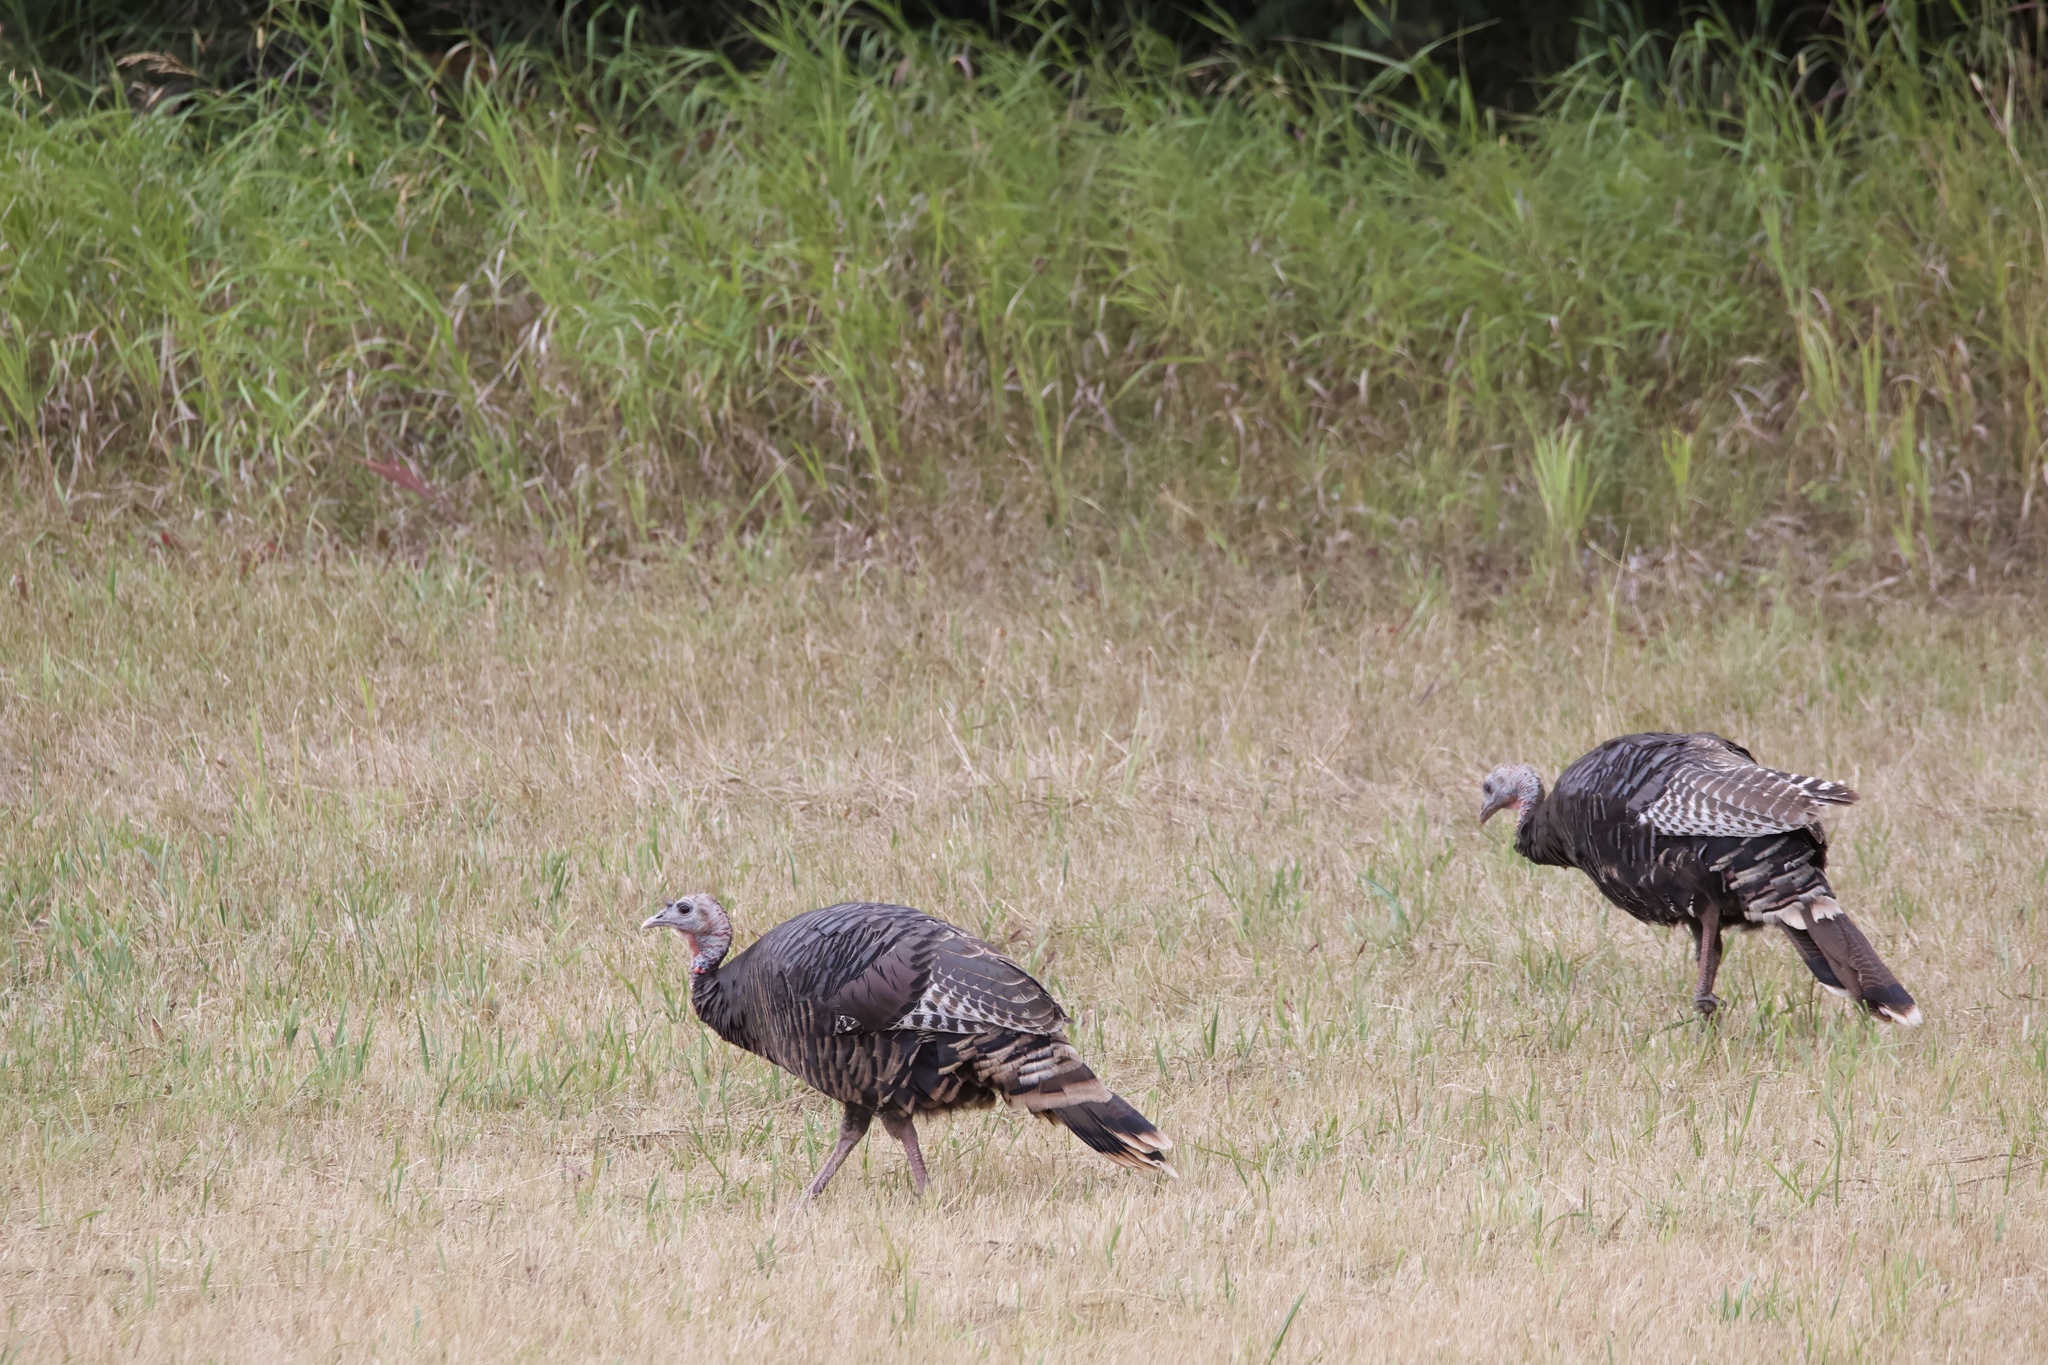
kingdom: Animalia
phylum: Chordata
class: Aves
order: Galliformes
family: Phasianidae
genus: Meleagris
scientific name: Meleagris gallopavo
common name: Wild turkey
